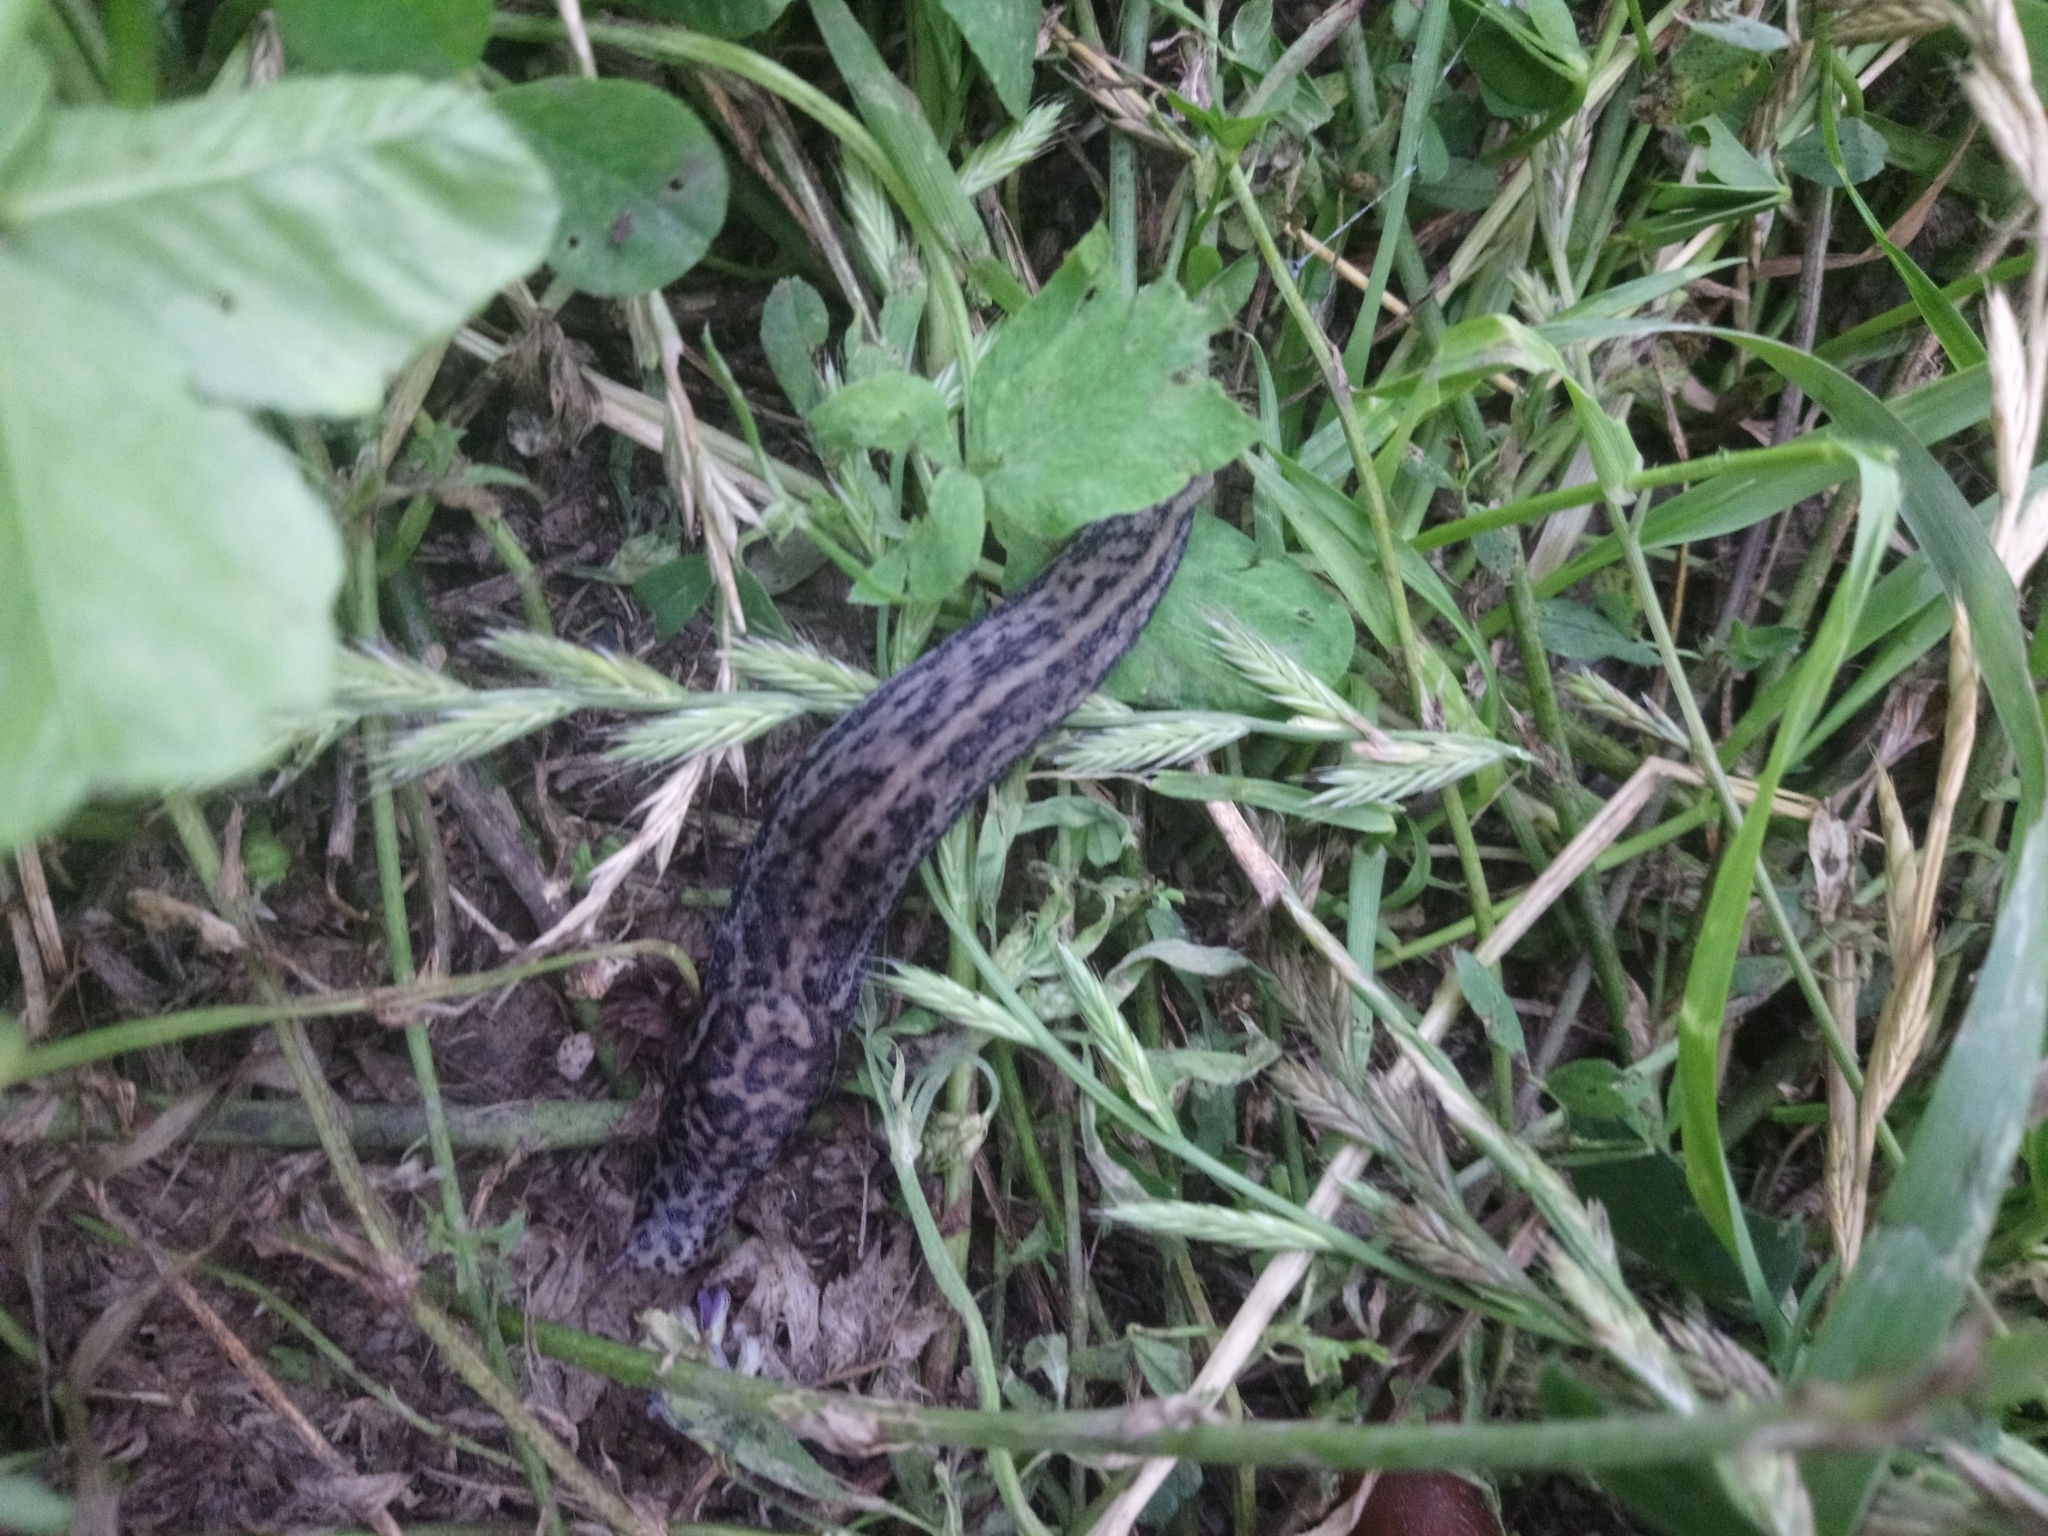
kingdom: Animalia
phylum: Mollusca
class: Gastropoda
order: Stylommatophora
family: Limacidae
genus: Limax
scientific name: Limax maximus
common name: Great grey slug
